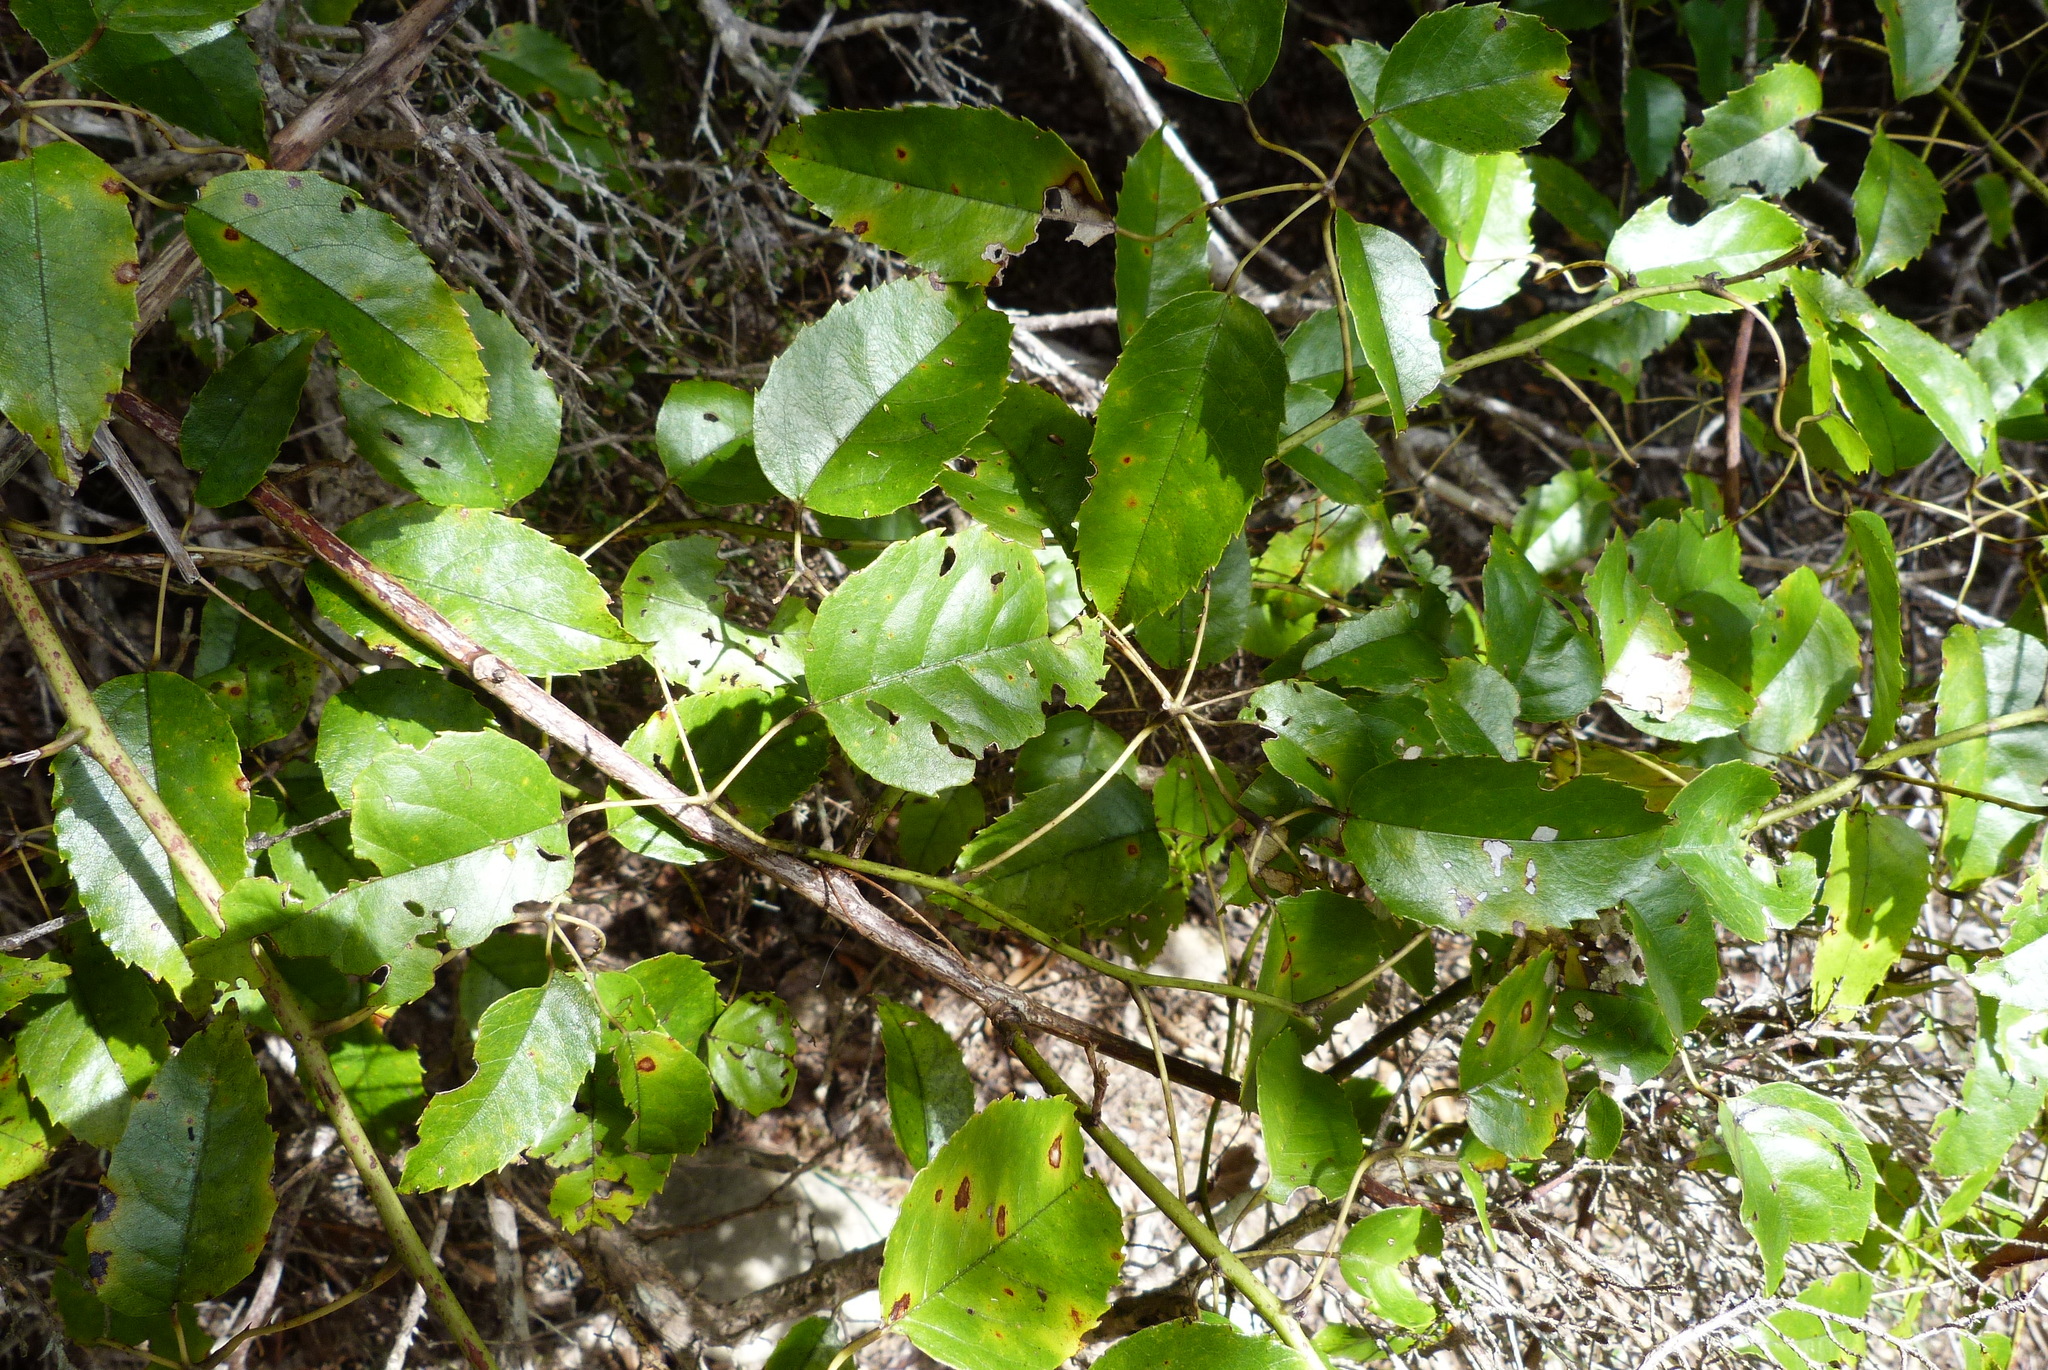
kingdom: Plantae
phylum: Tracheophyta
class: Magnoliopsida
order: Rosales
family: Rosaceae
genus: Rubus
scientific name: Rubus cissoides
